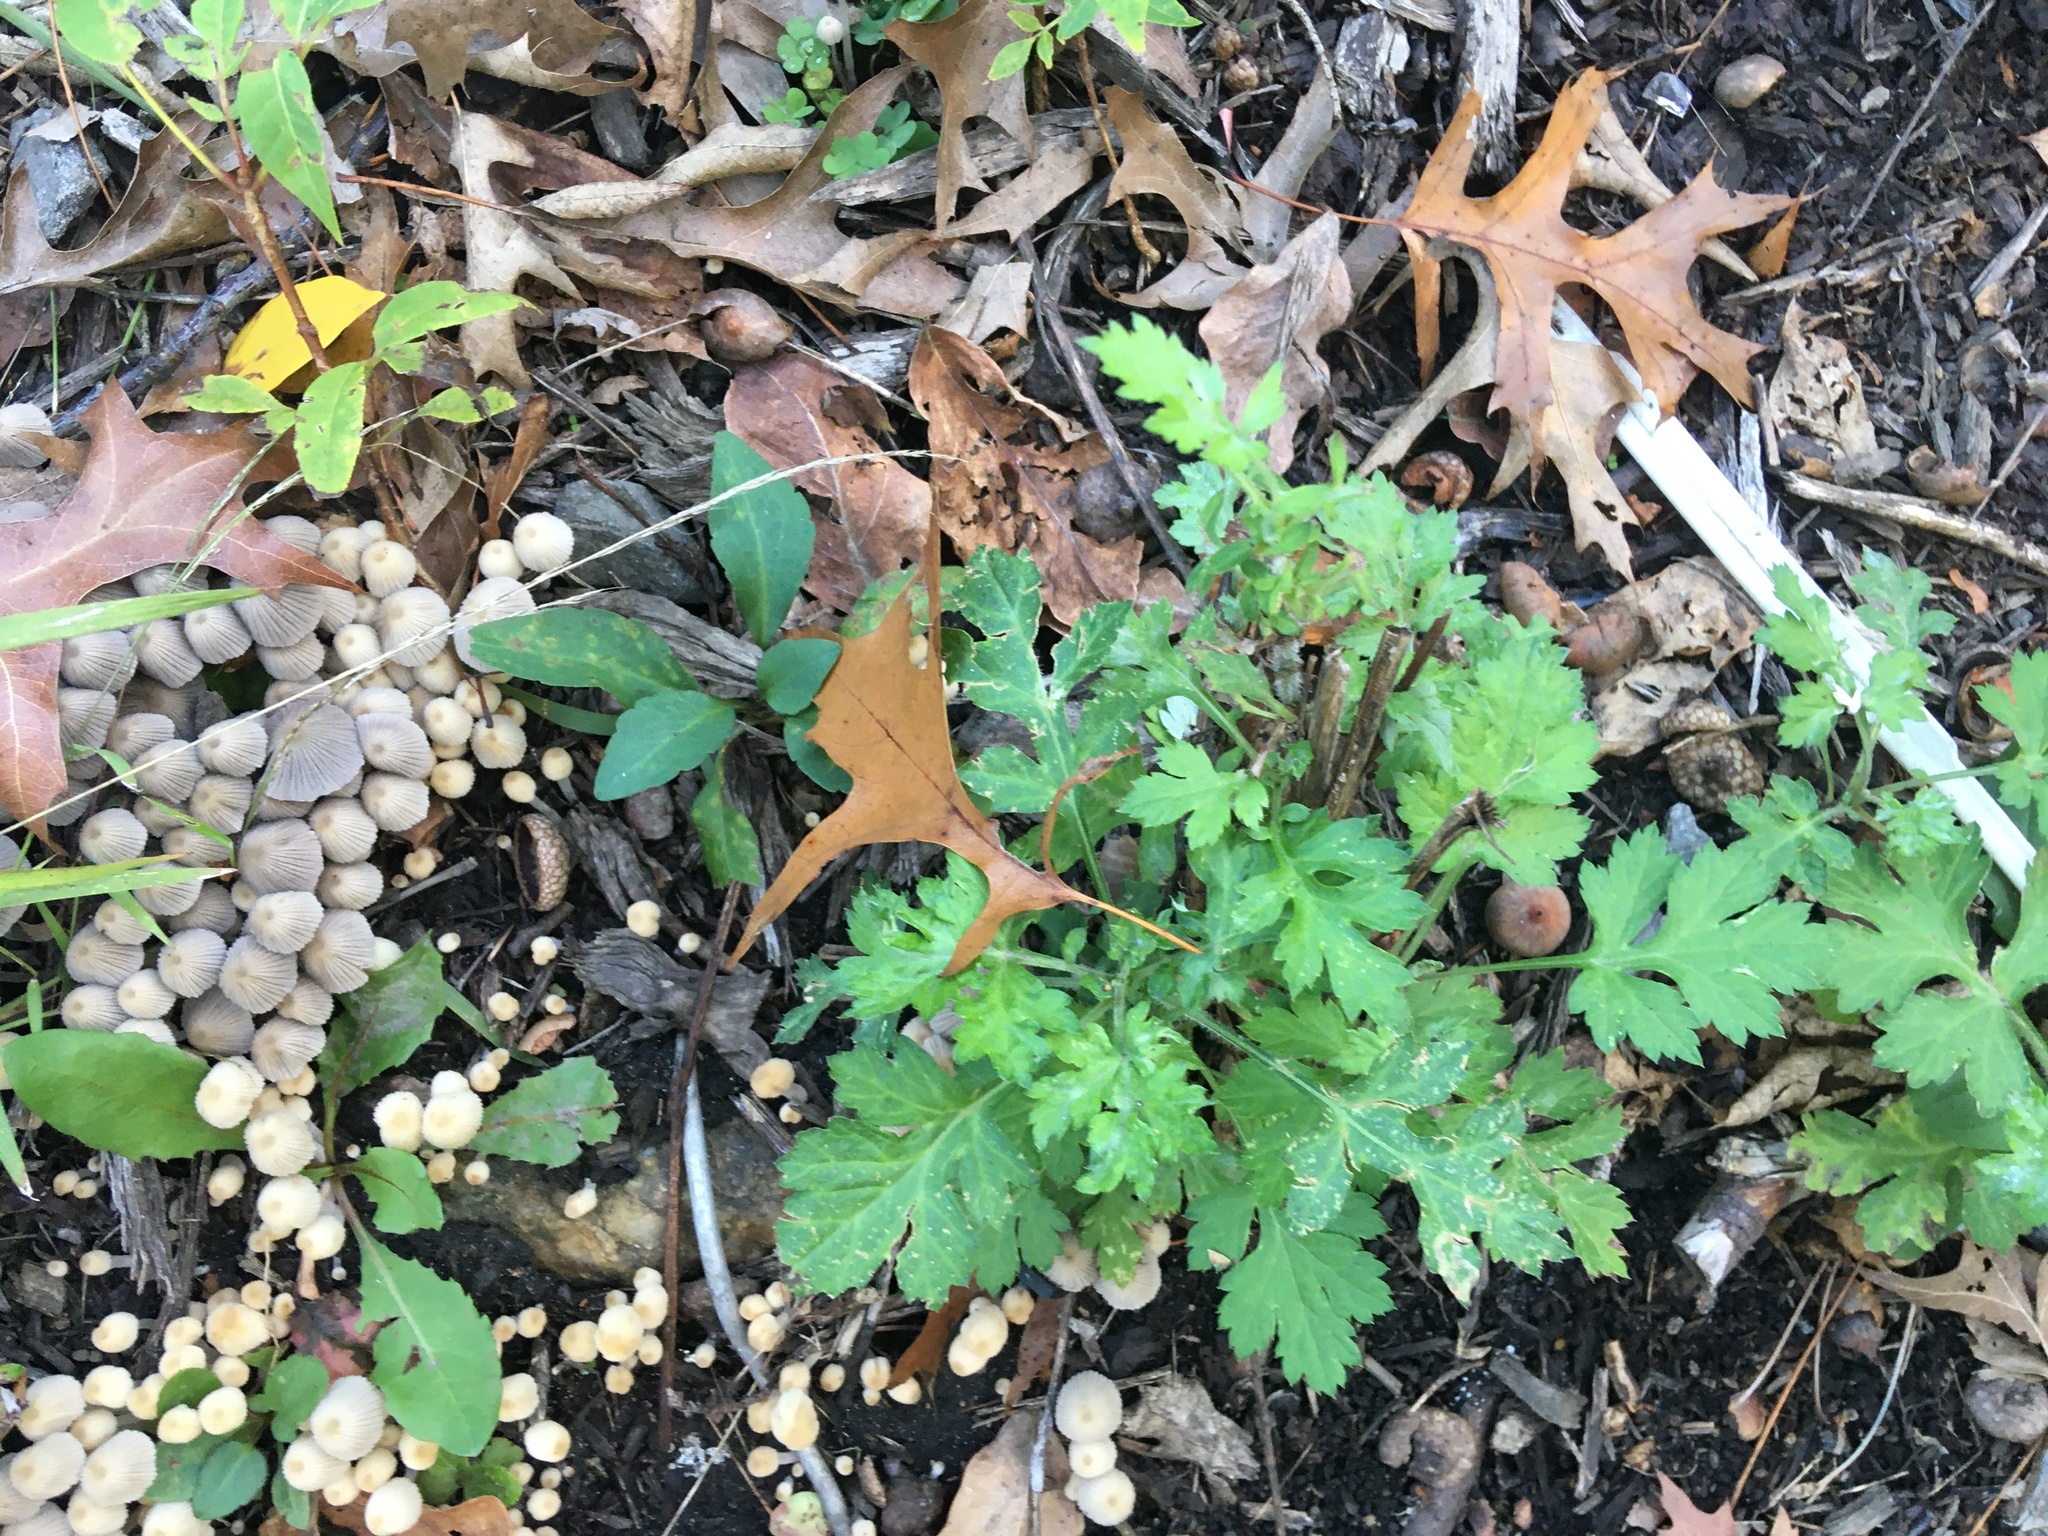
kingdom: Plantae
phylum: Tracheophyta
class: Magnoliopsida
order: Asterales
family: Asteraceae
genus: Artemisia
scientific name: Artemisia vulgaris
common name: Mugwort
